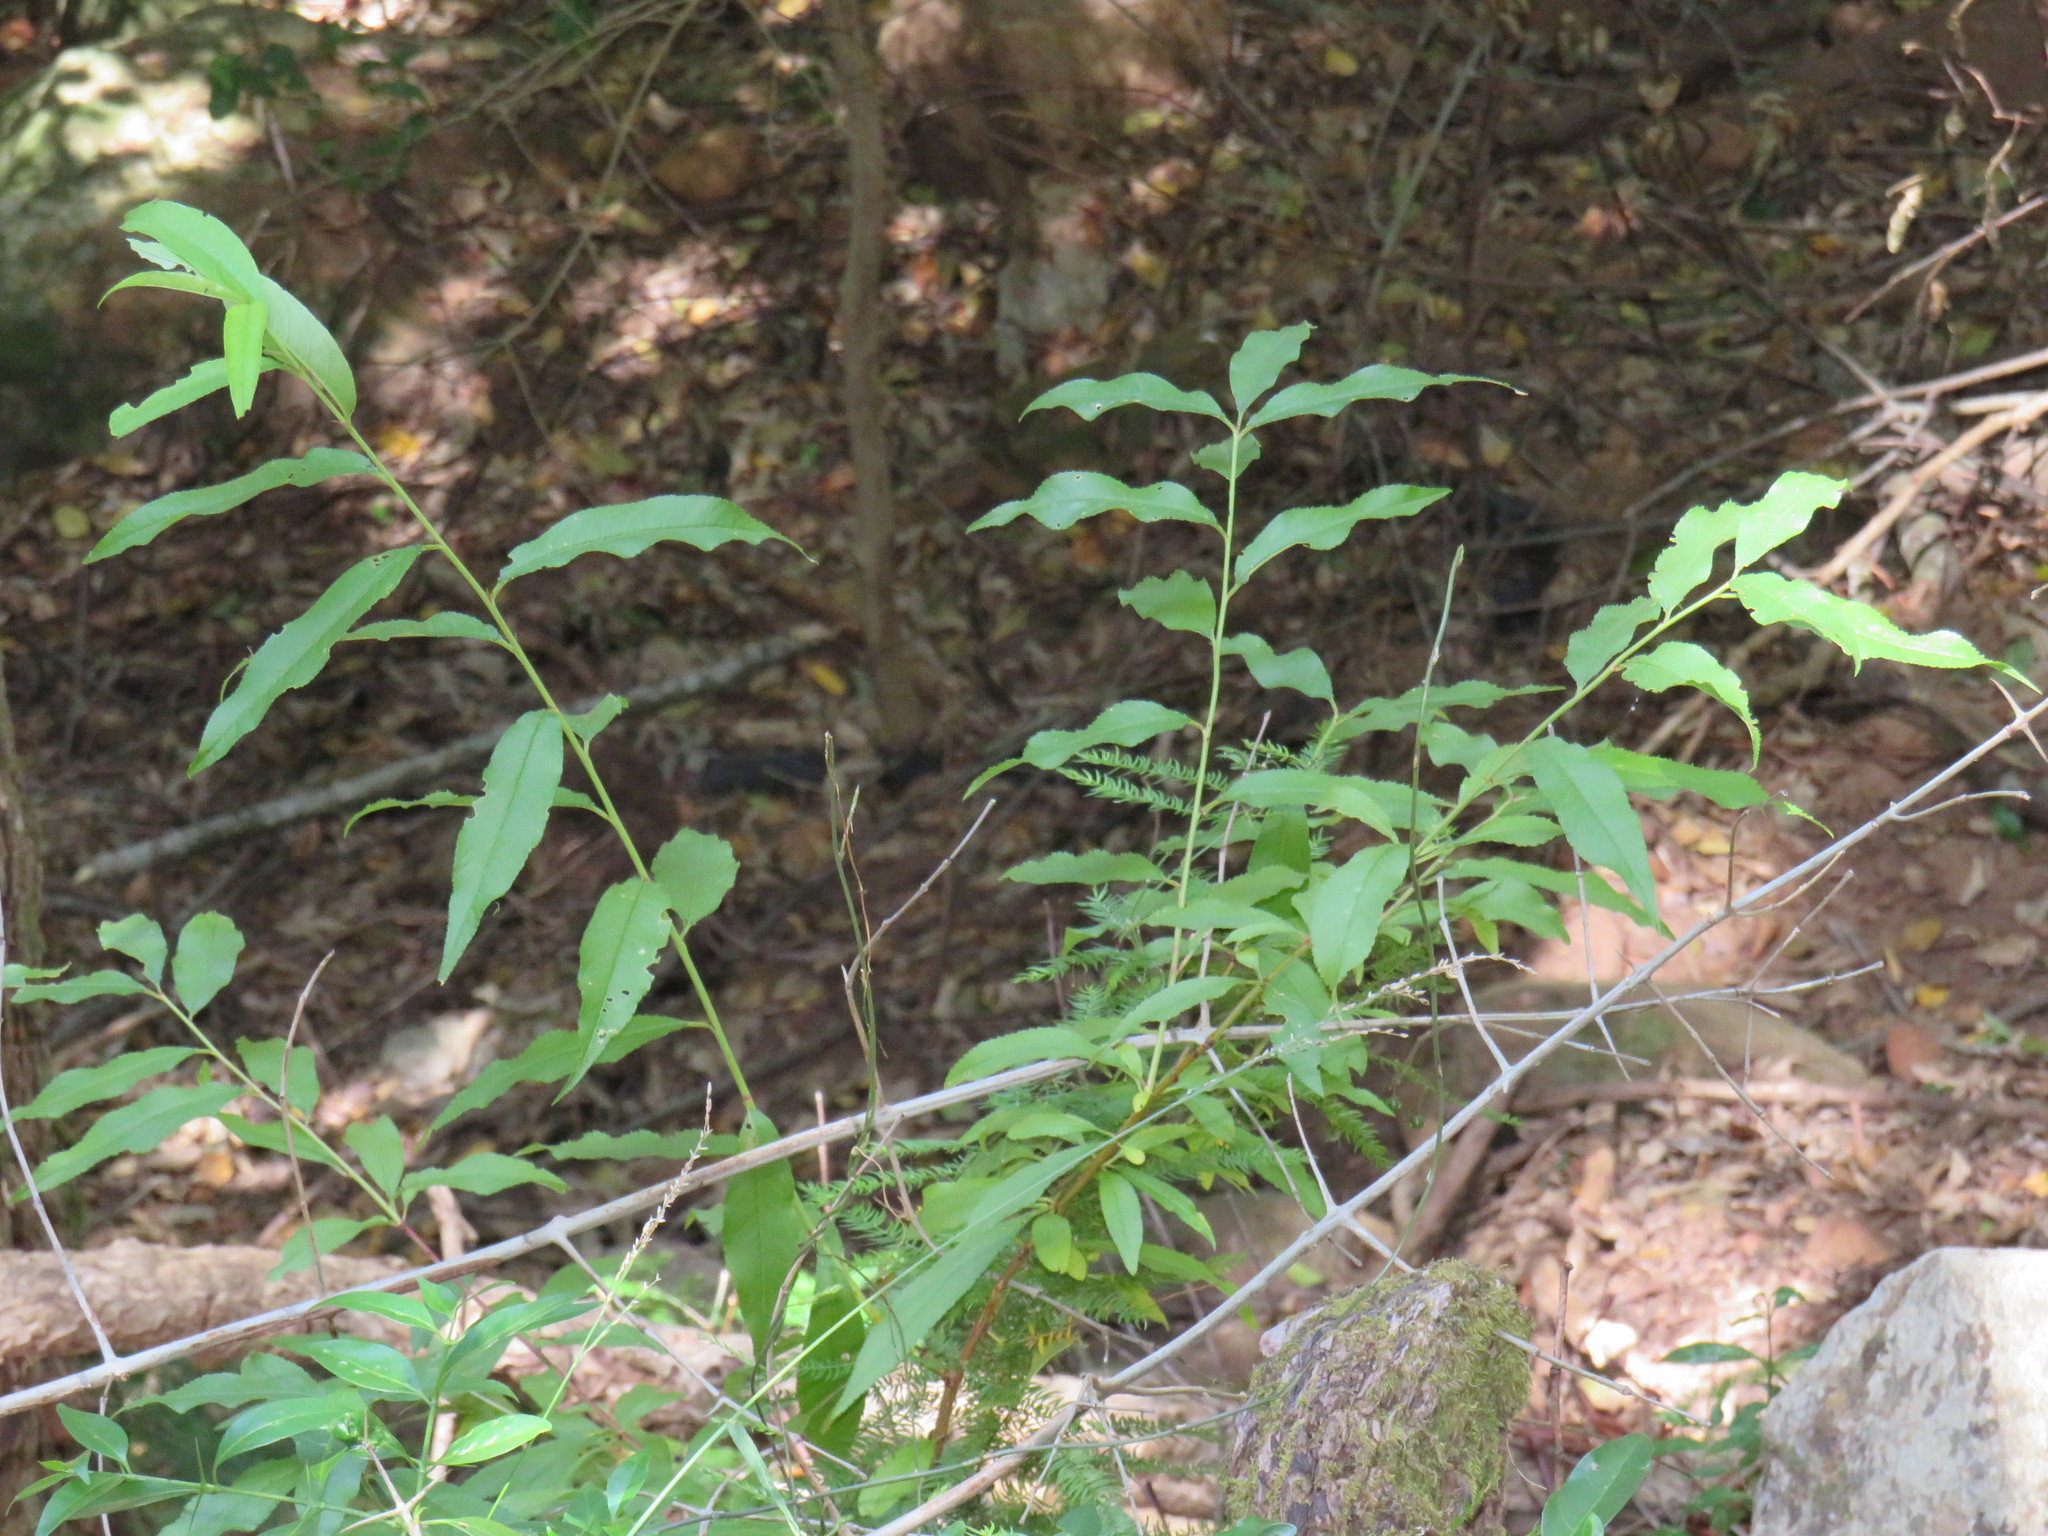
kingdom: Plantae
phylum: Tracheophyta
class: Magnoliopsida
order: Rosales
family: Rosaceae
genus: Prunus
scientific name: Prunus persica
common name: Peach
